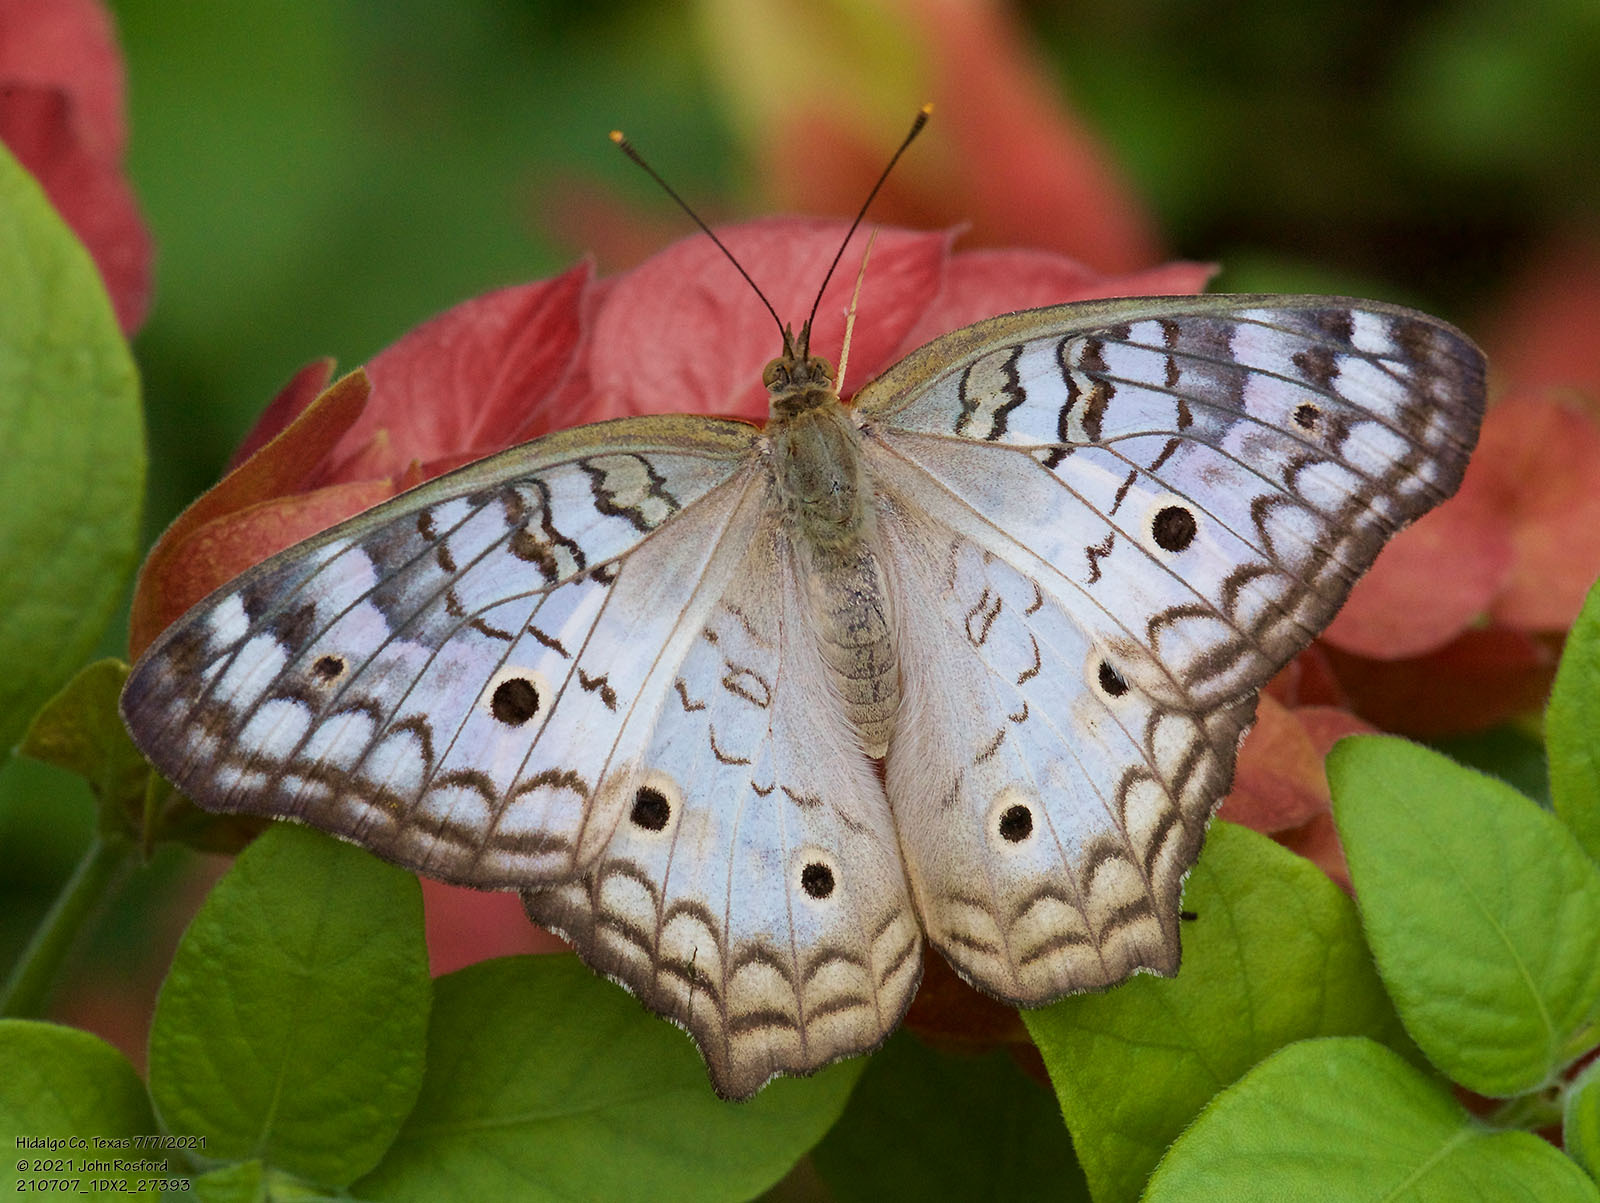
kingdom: Animalia
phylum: Arthropoda
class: Insecta
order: Lepidoptera
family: Nymphalidae
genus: Anartia
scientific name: Anartia jatrophae
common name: White peacock
